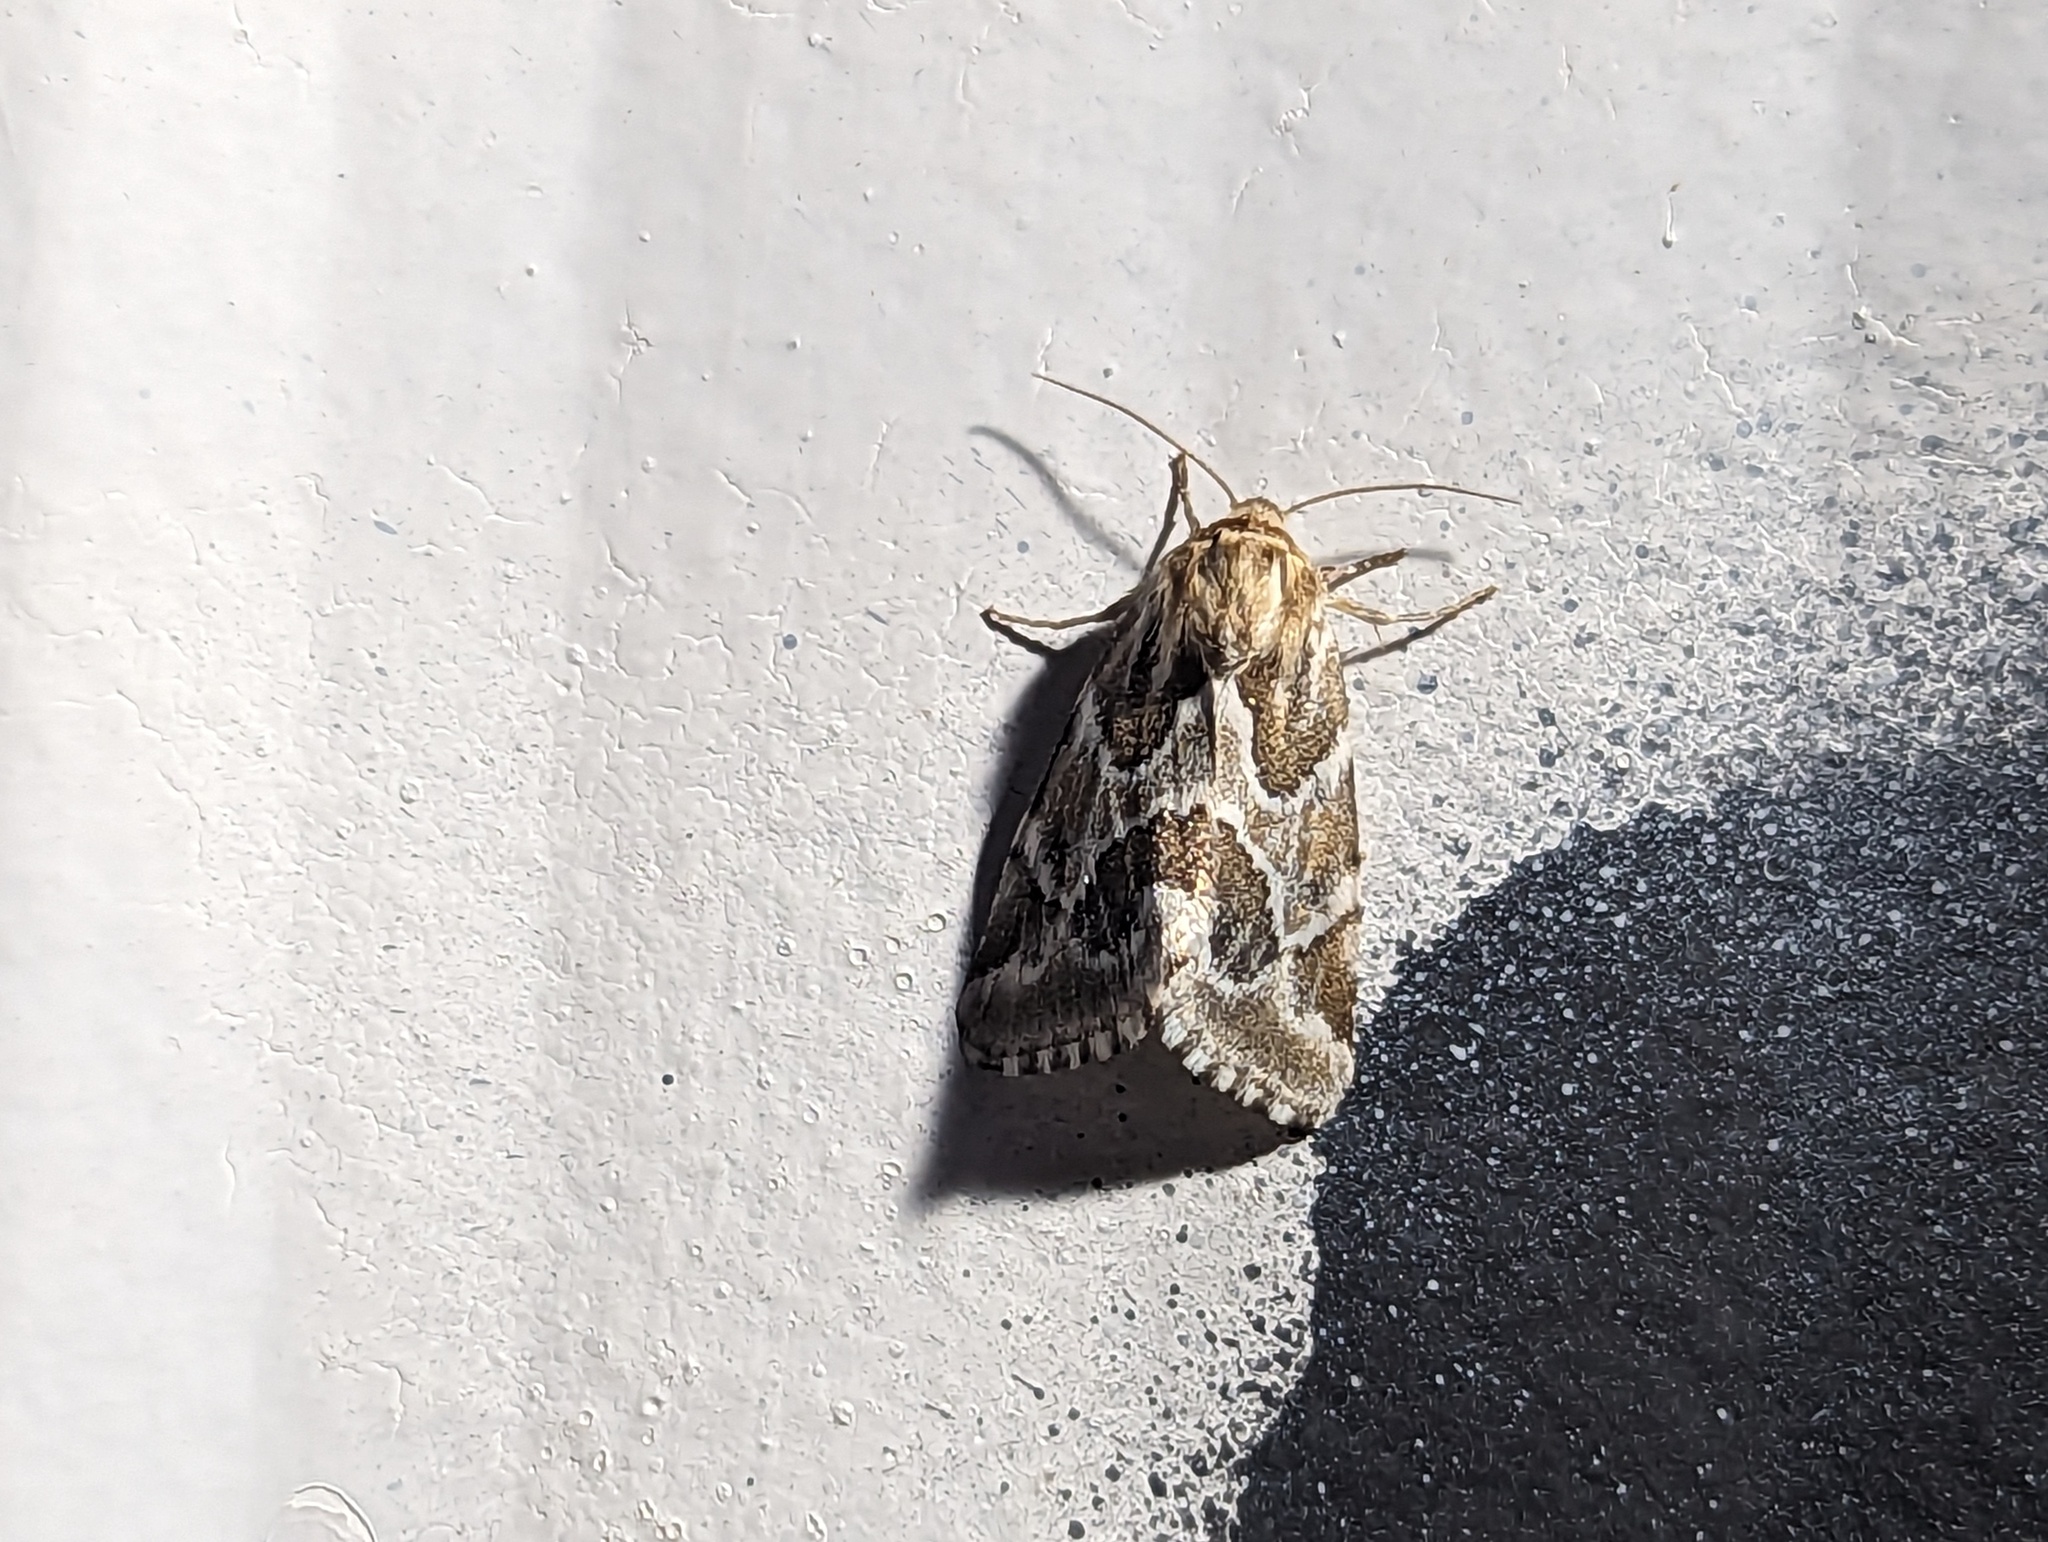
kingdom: Animalia
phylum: Arthropoda
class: Insecta
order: Lepidoptera
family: Noctuidae
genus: Schinia
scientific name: Schinia acutilinea
